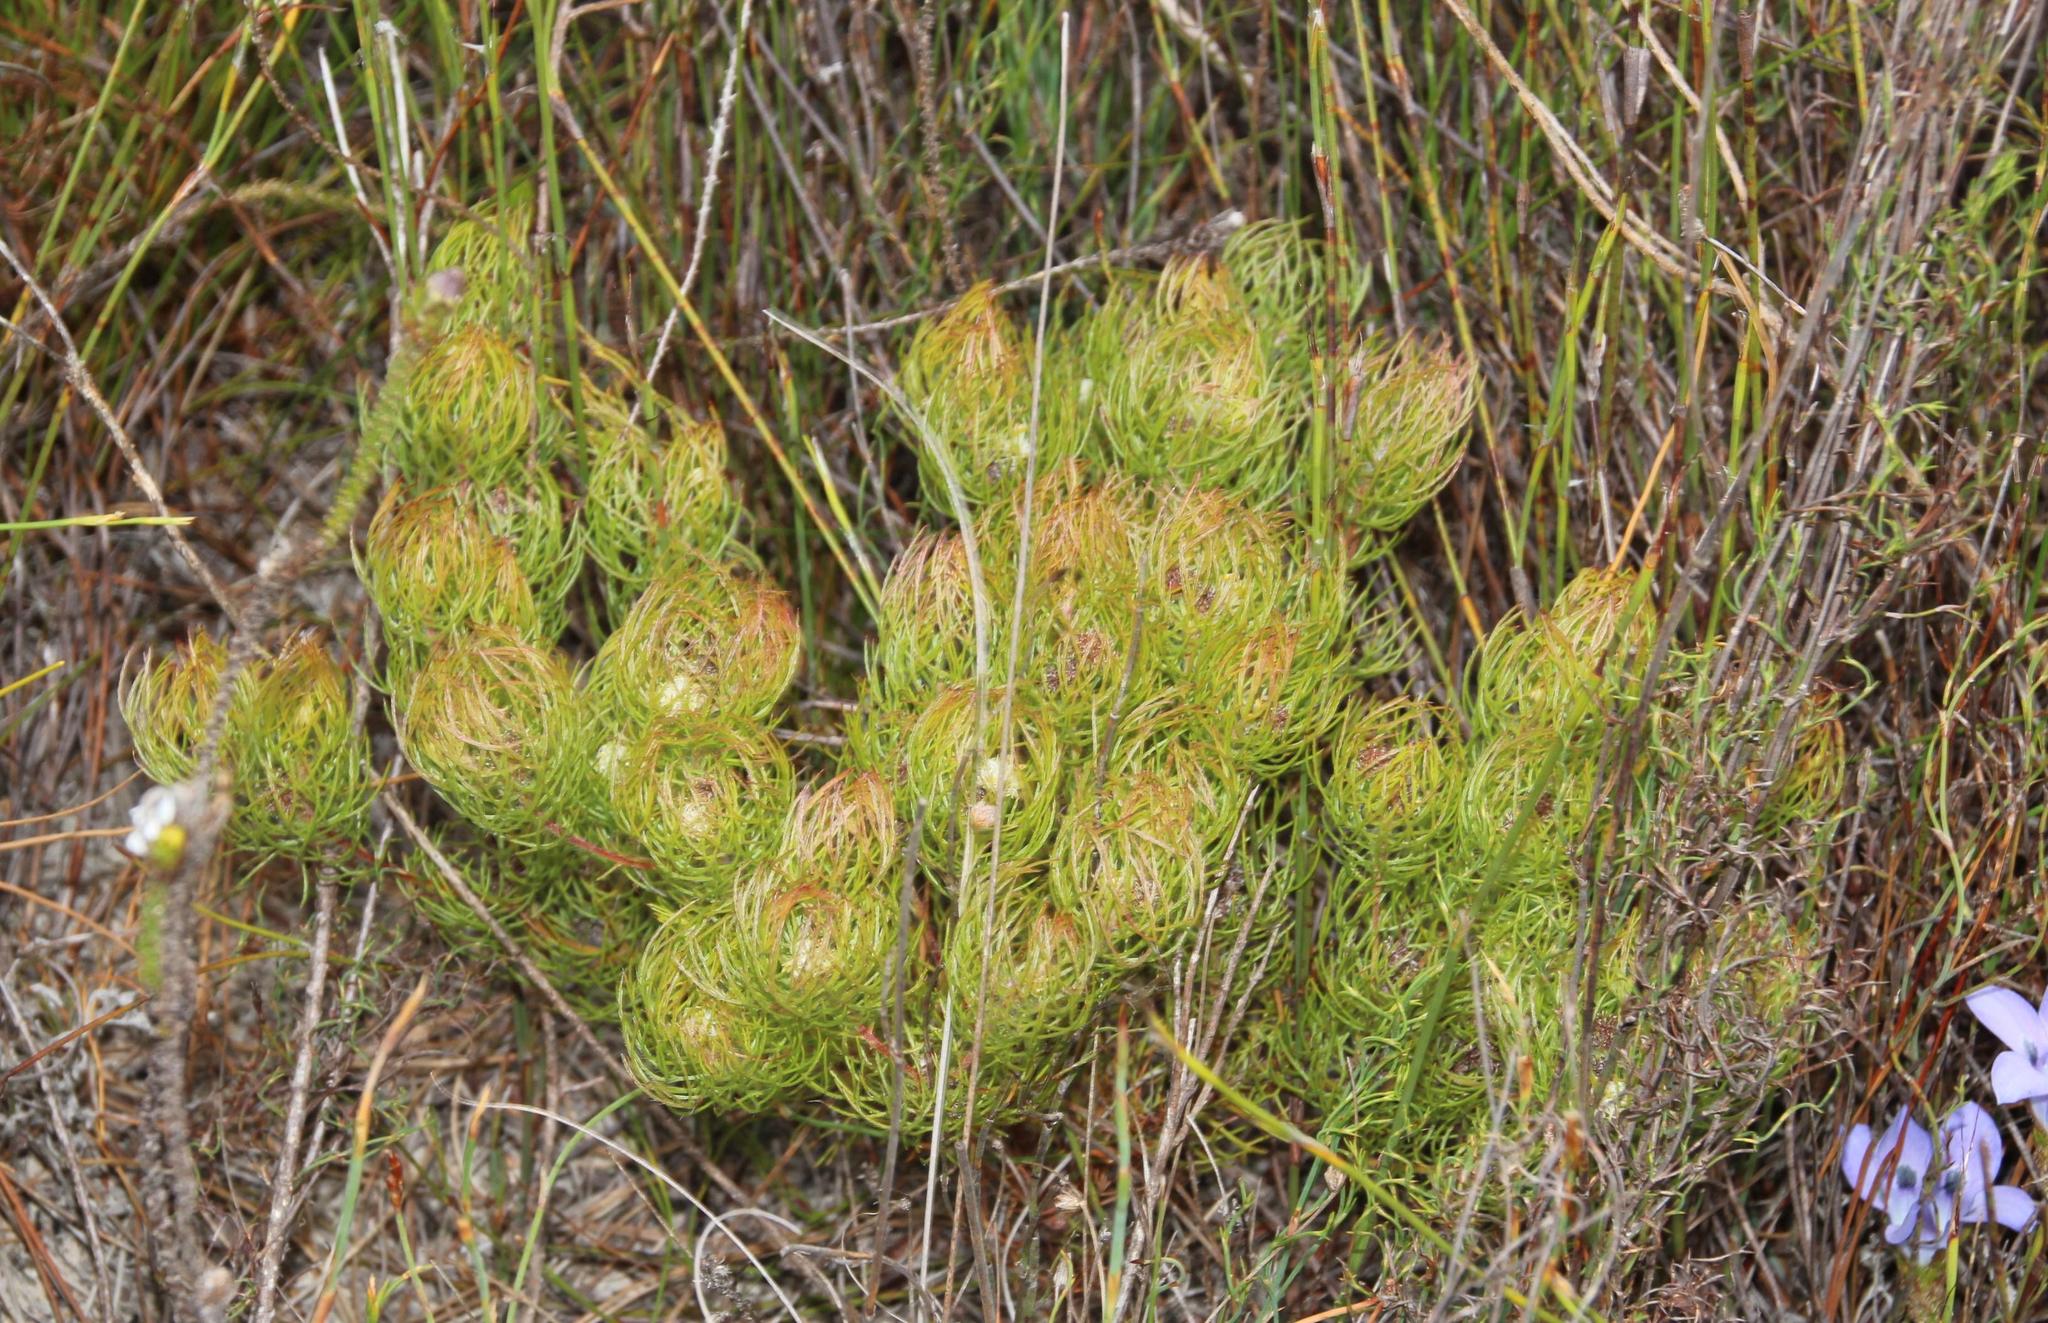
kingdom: Plantae
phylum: Tracheophyta
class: Magnoliopsida
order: Proteales
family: Proteaceae
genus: Serruria
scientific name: Serruria inconspicua
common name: Cryptic spiderhead
